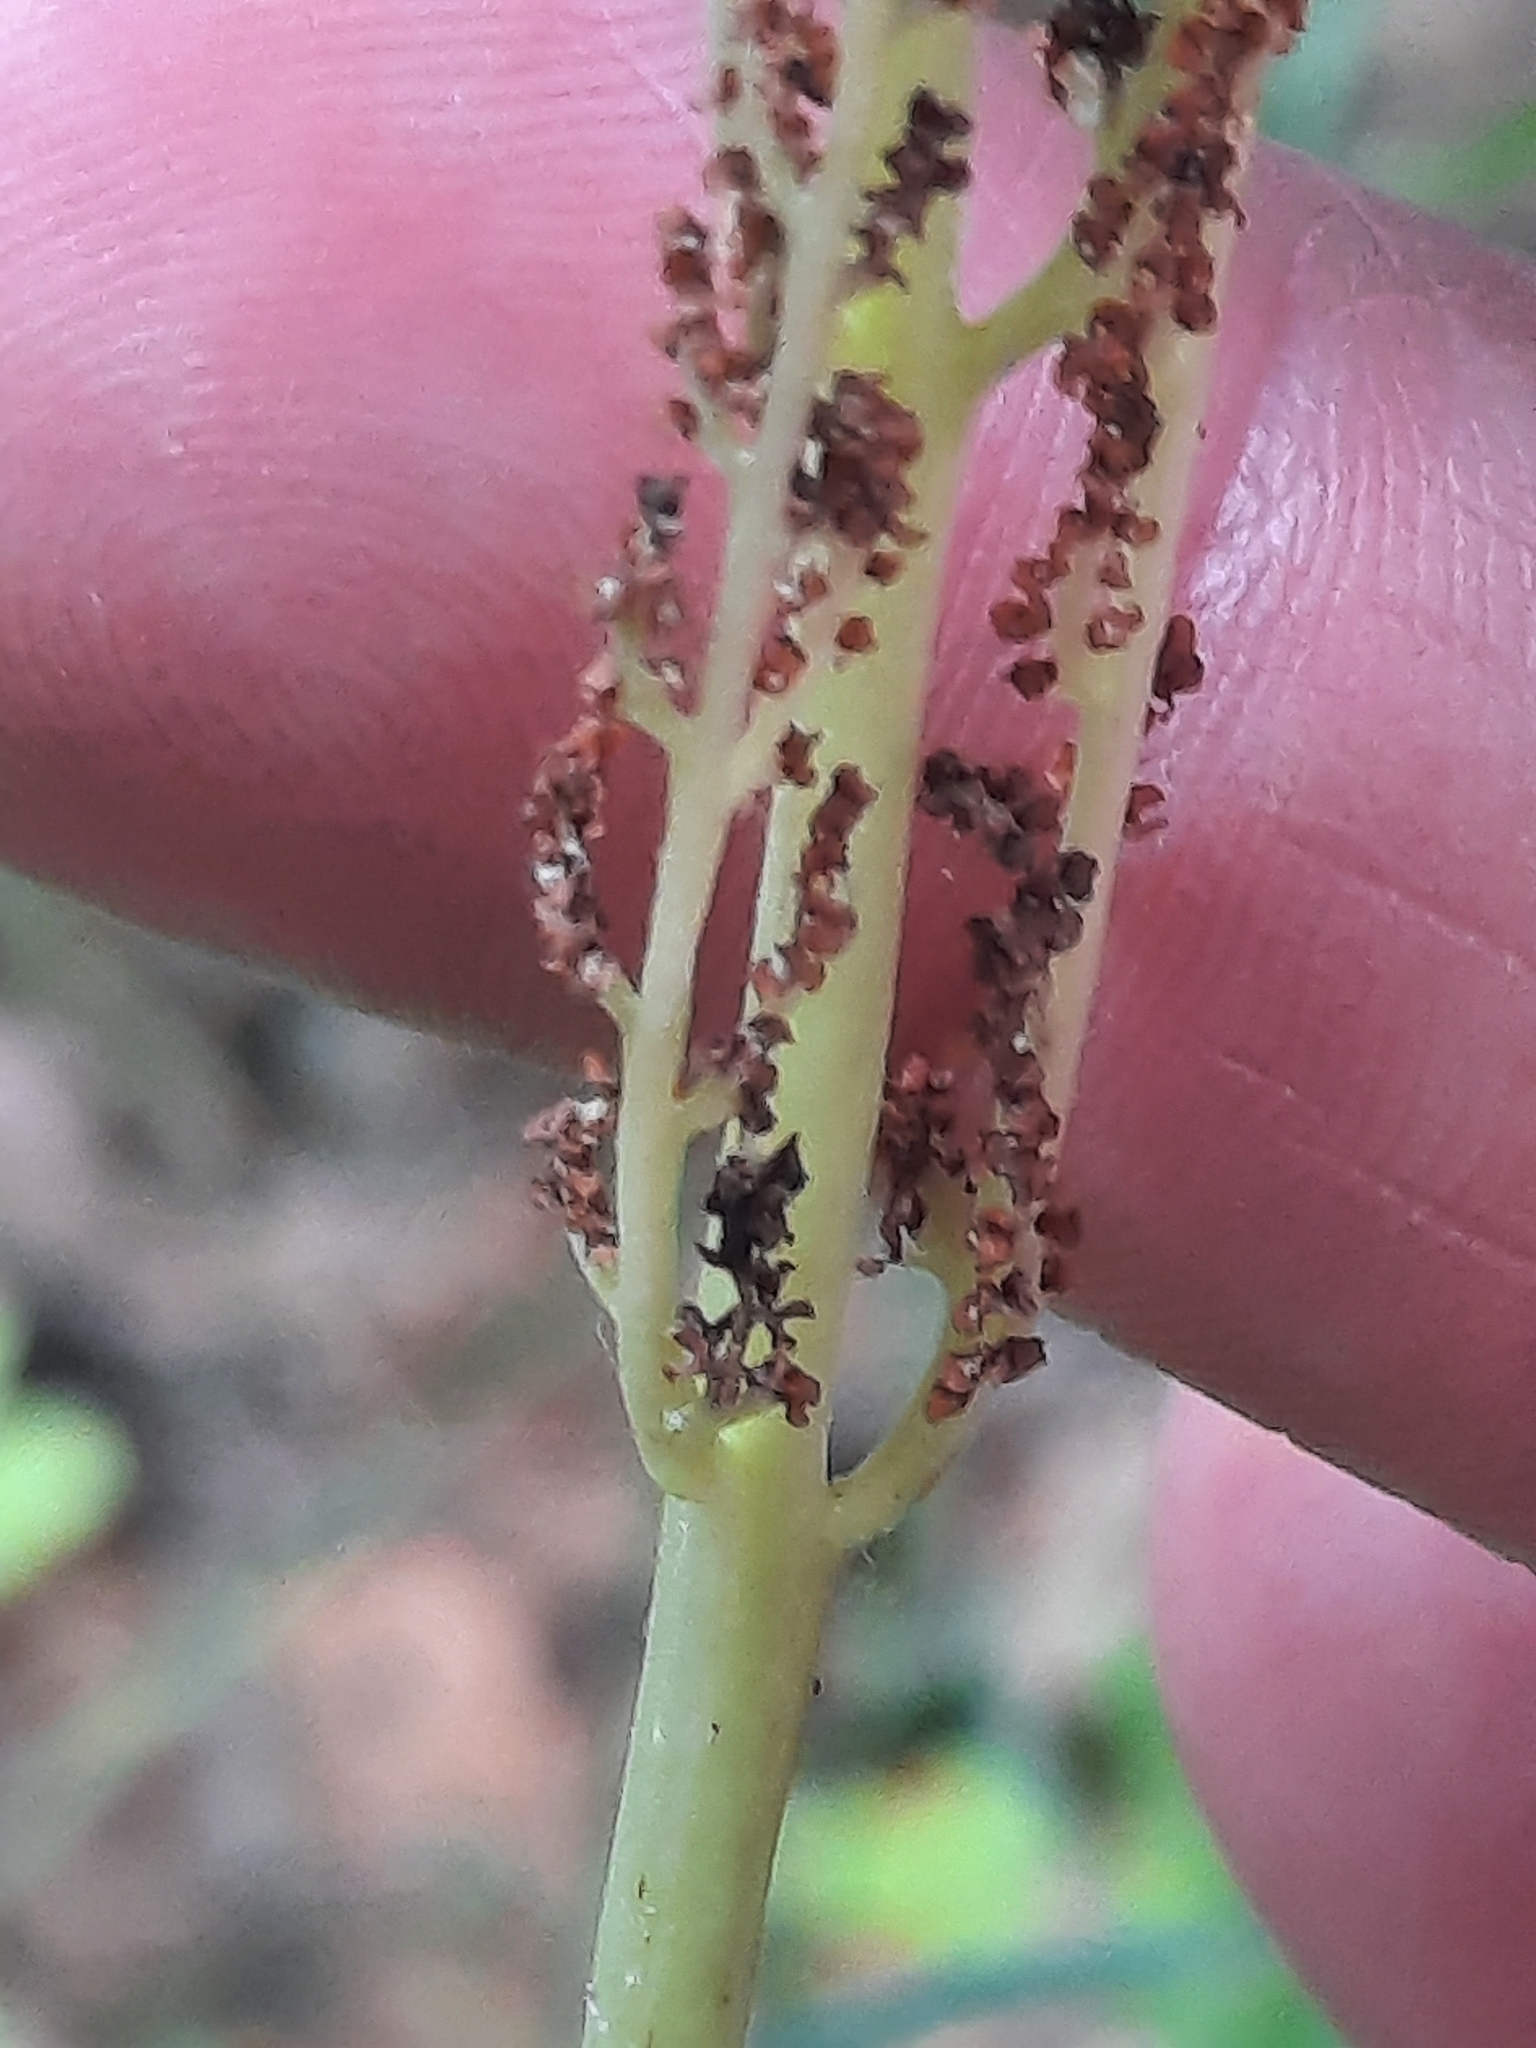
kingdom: Plantae
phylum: Tracheophyta
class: Polypodiopsida
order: Ophioglossales
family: Ophioglossaceae
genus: Botrypus
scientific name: Botrypus virginianus
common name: Common grapefern
